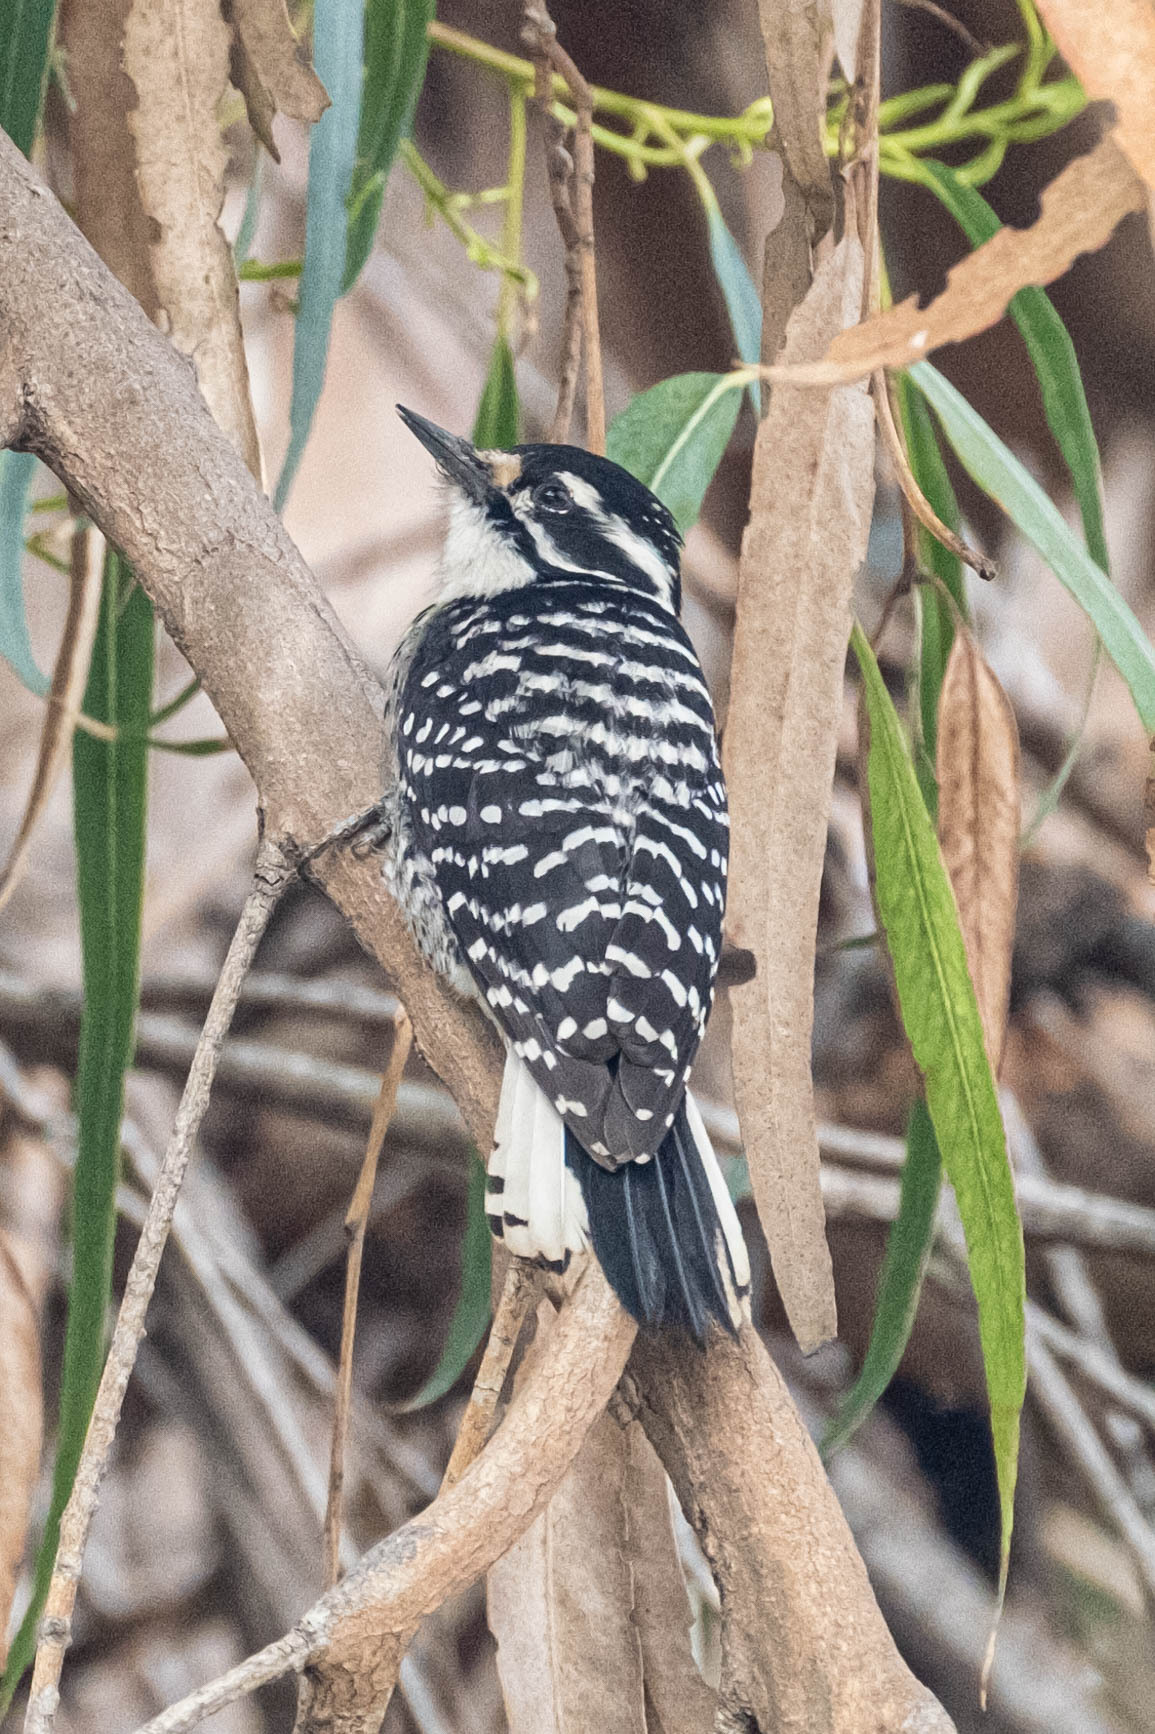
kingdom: Animalia
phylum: Chordata
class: Aves
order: Piciformes
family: Picidae
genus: Dryobates
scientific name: Dryobates nuttallii
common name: Nuttall's woodpecker
